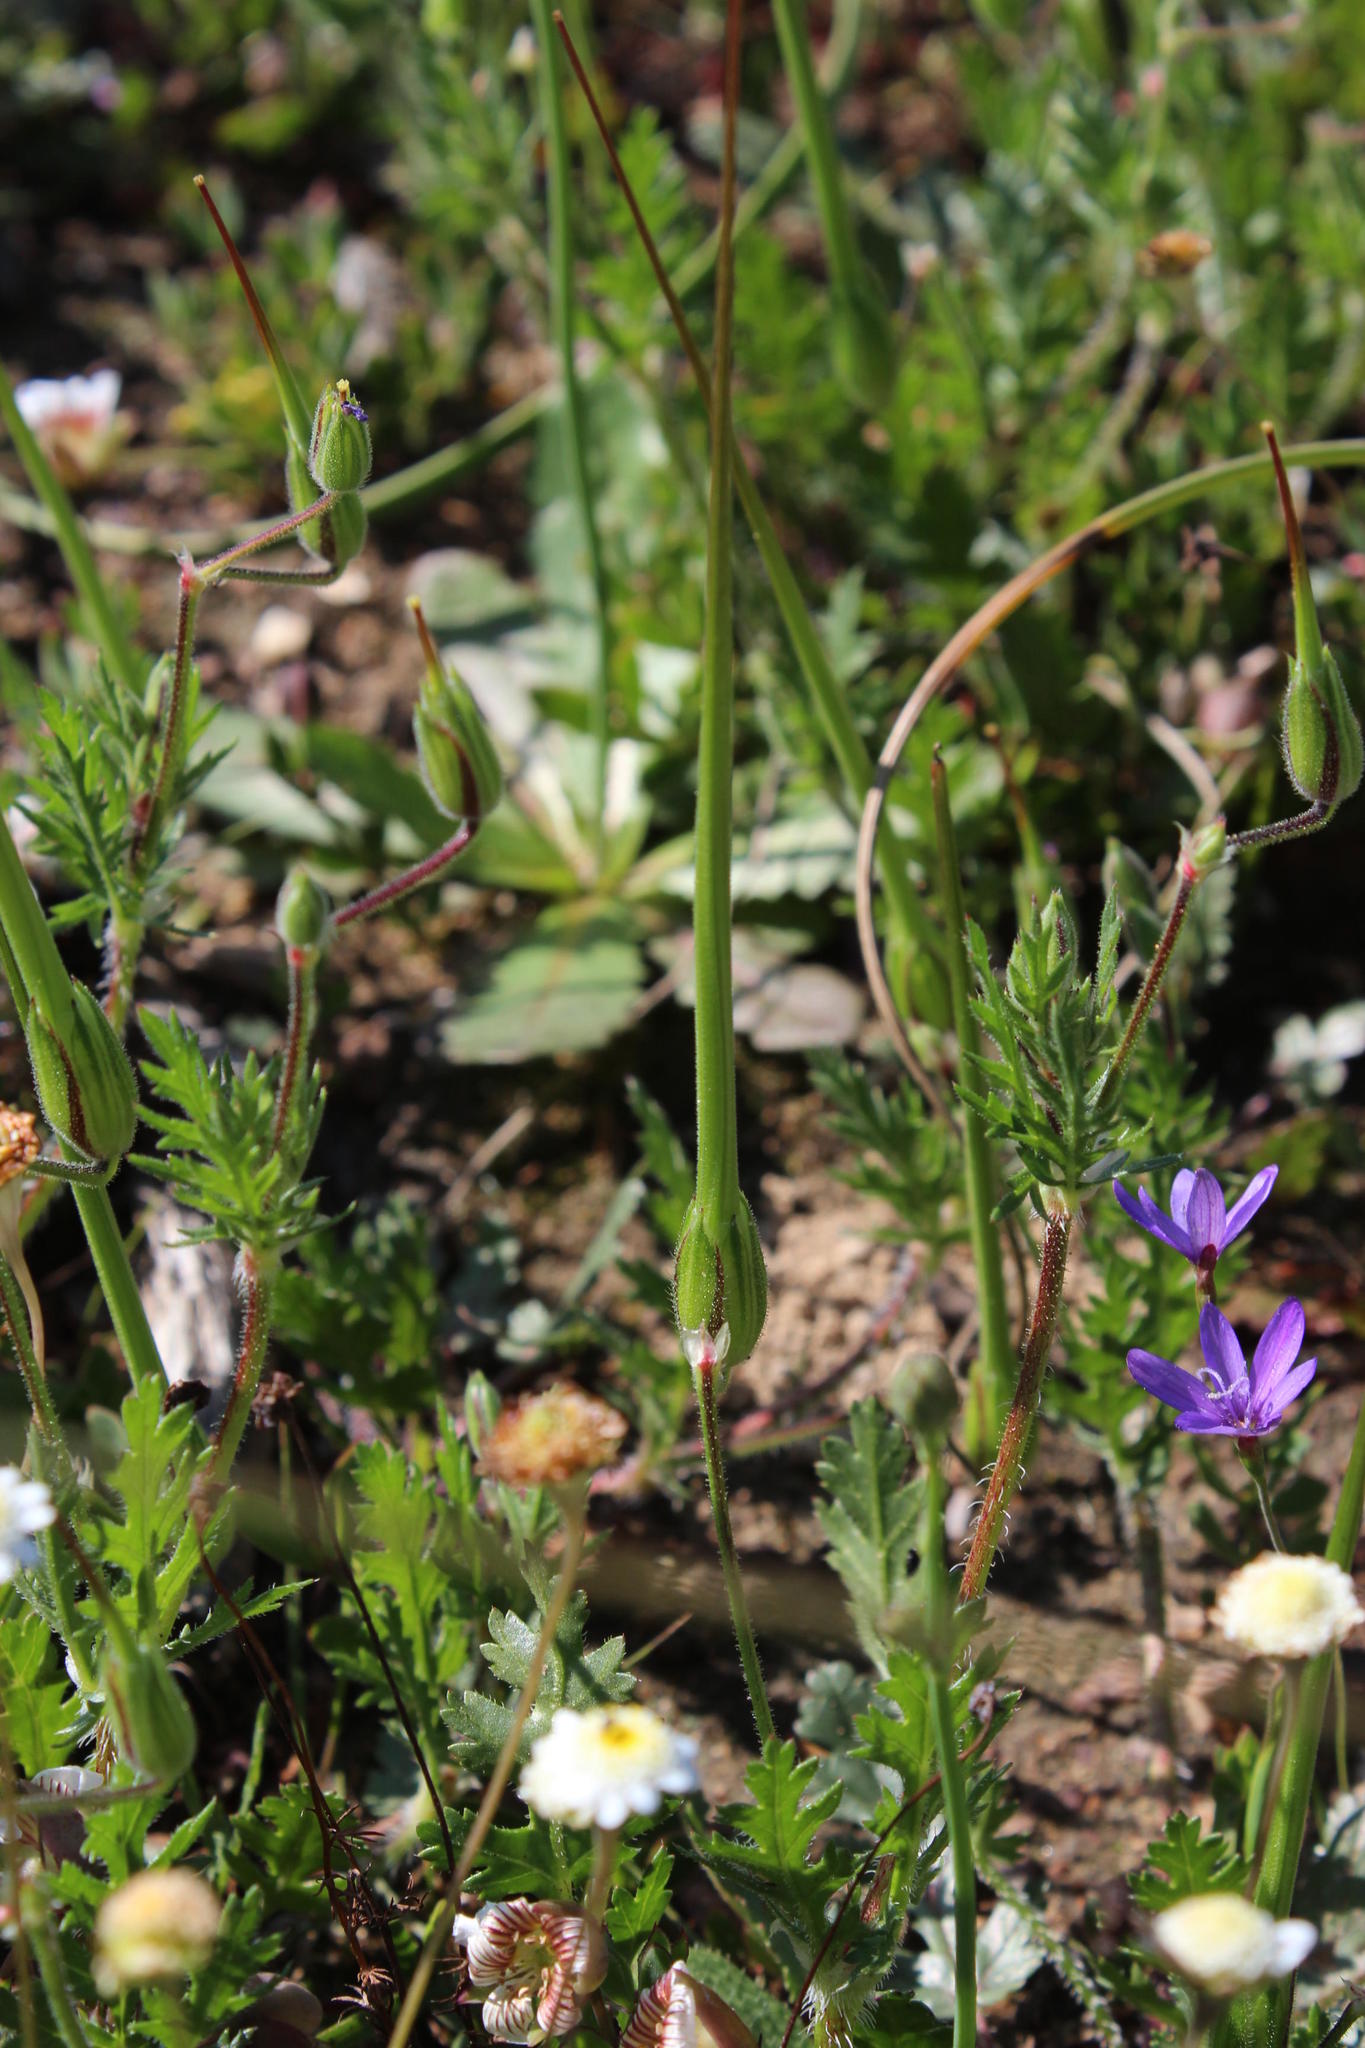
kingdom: Plantae
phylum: Tracheophyta
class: Magnoliopsida
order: Geraniales
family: Geraniaceae
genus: Erodium
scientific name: Erodium botrys
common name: Mediterranean stork's-bill
